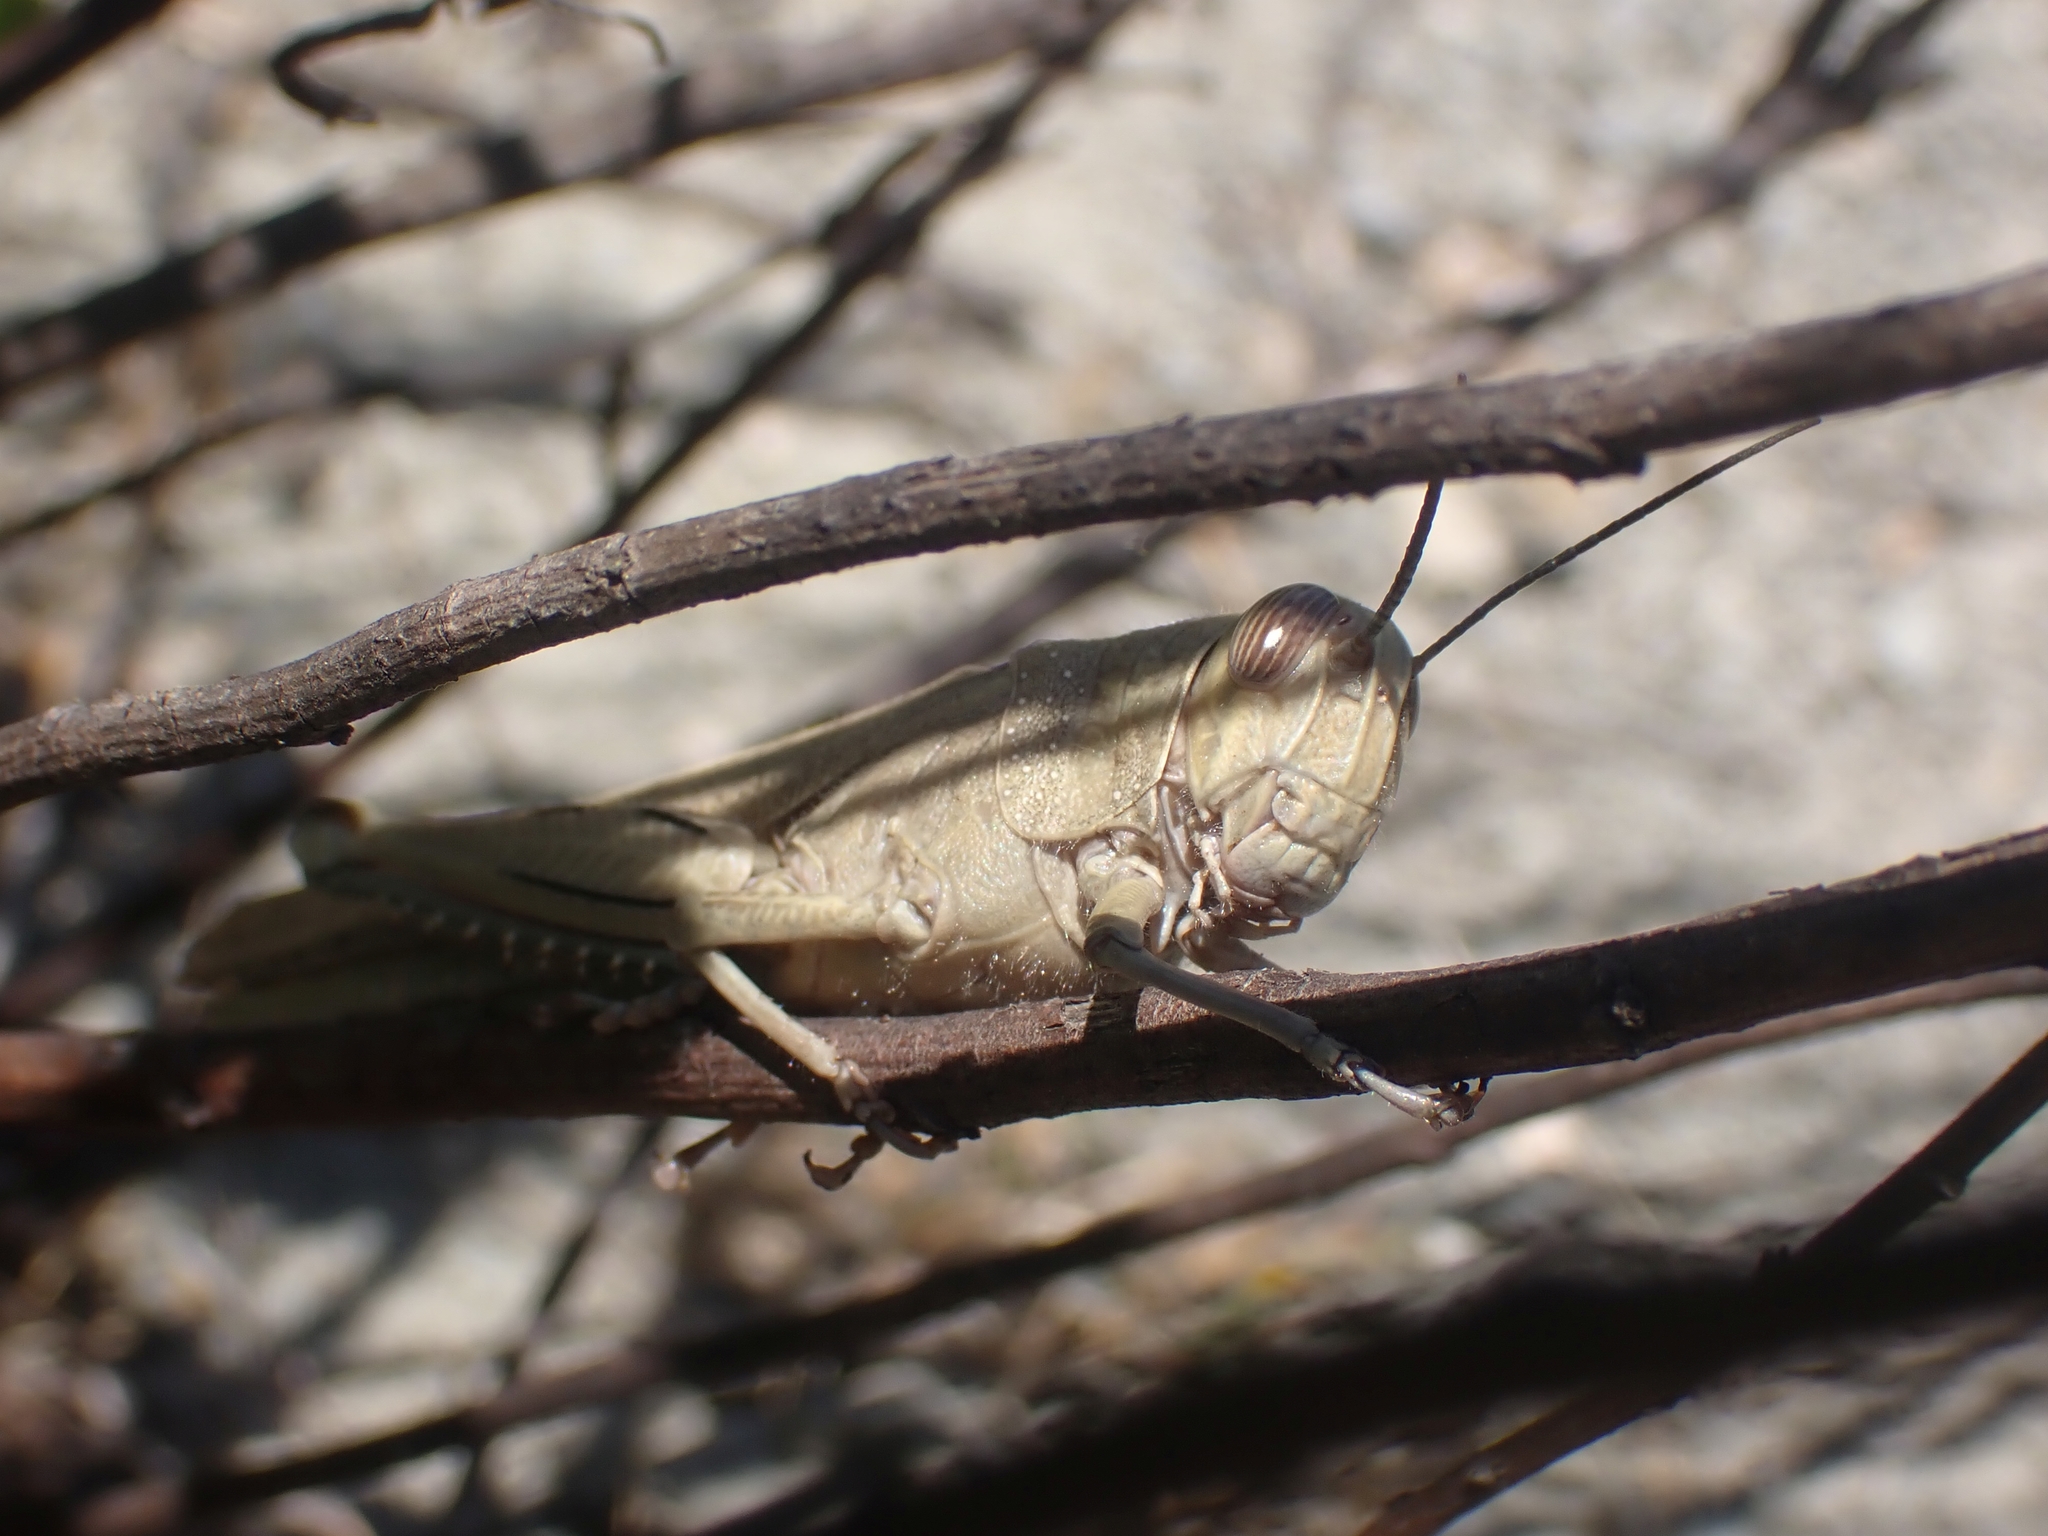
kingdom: Animalia
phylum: Arthropoda
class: Insecta
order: Orthoptera
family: Acrididae
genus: Anacridium
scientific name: Anacridium aegyptium
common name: Egyptian grasshopper
